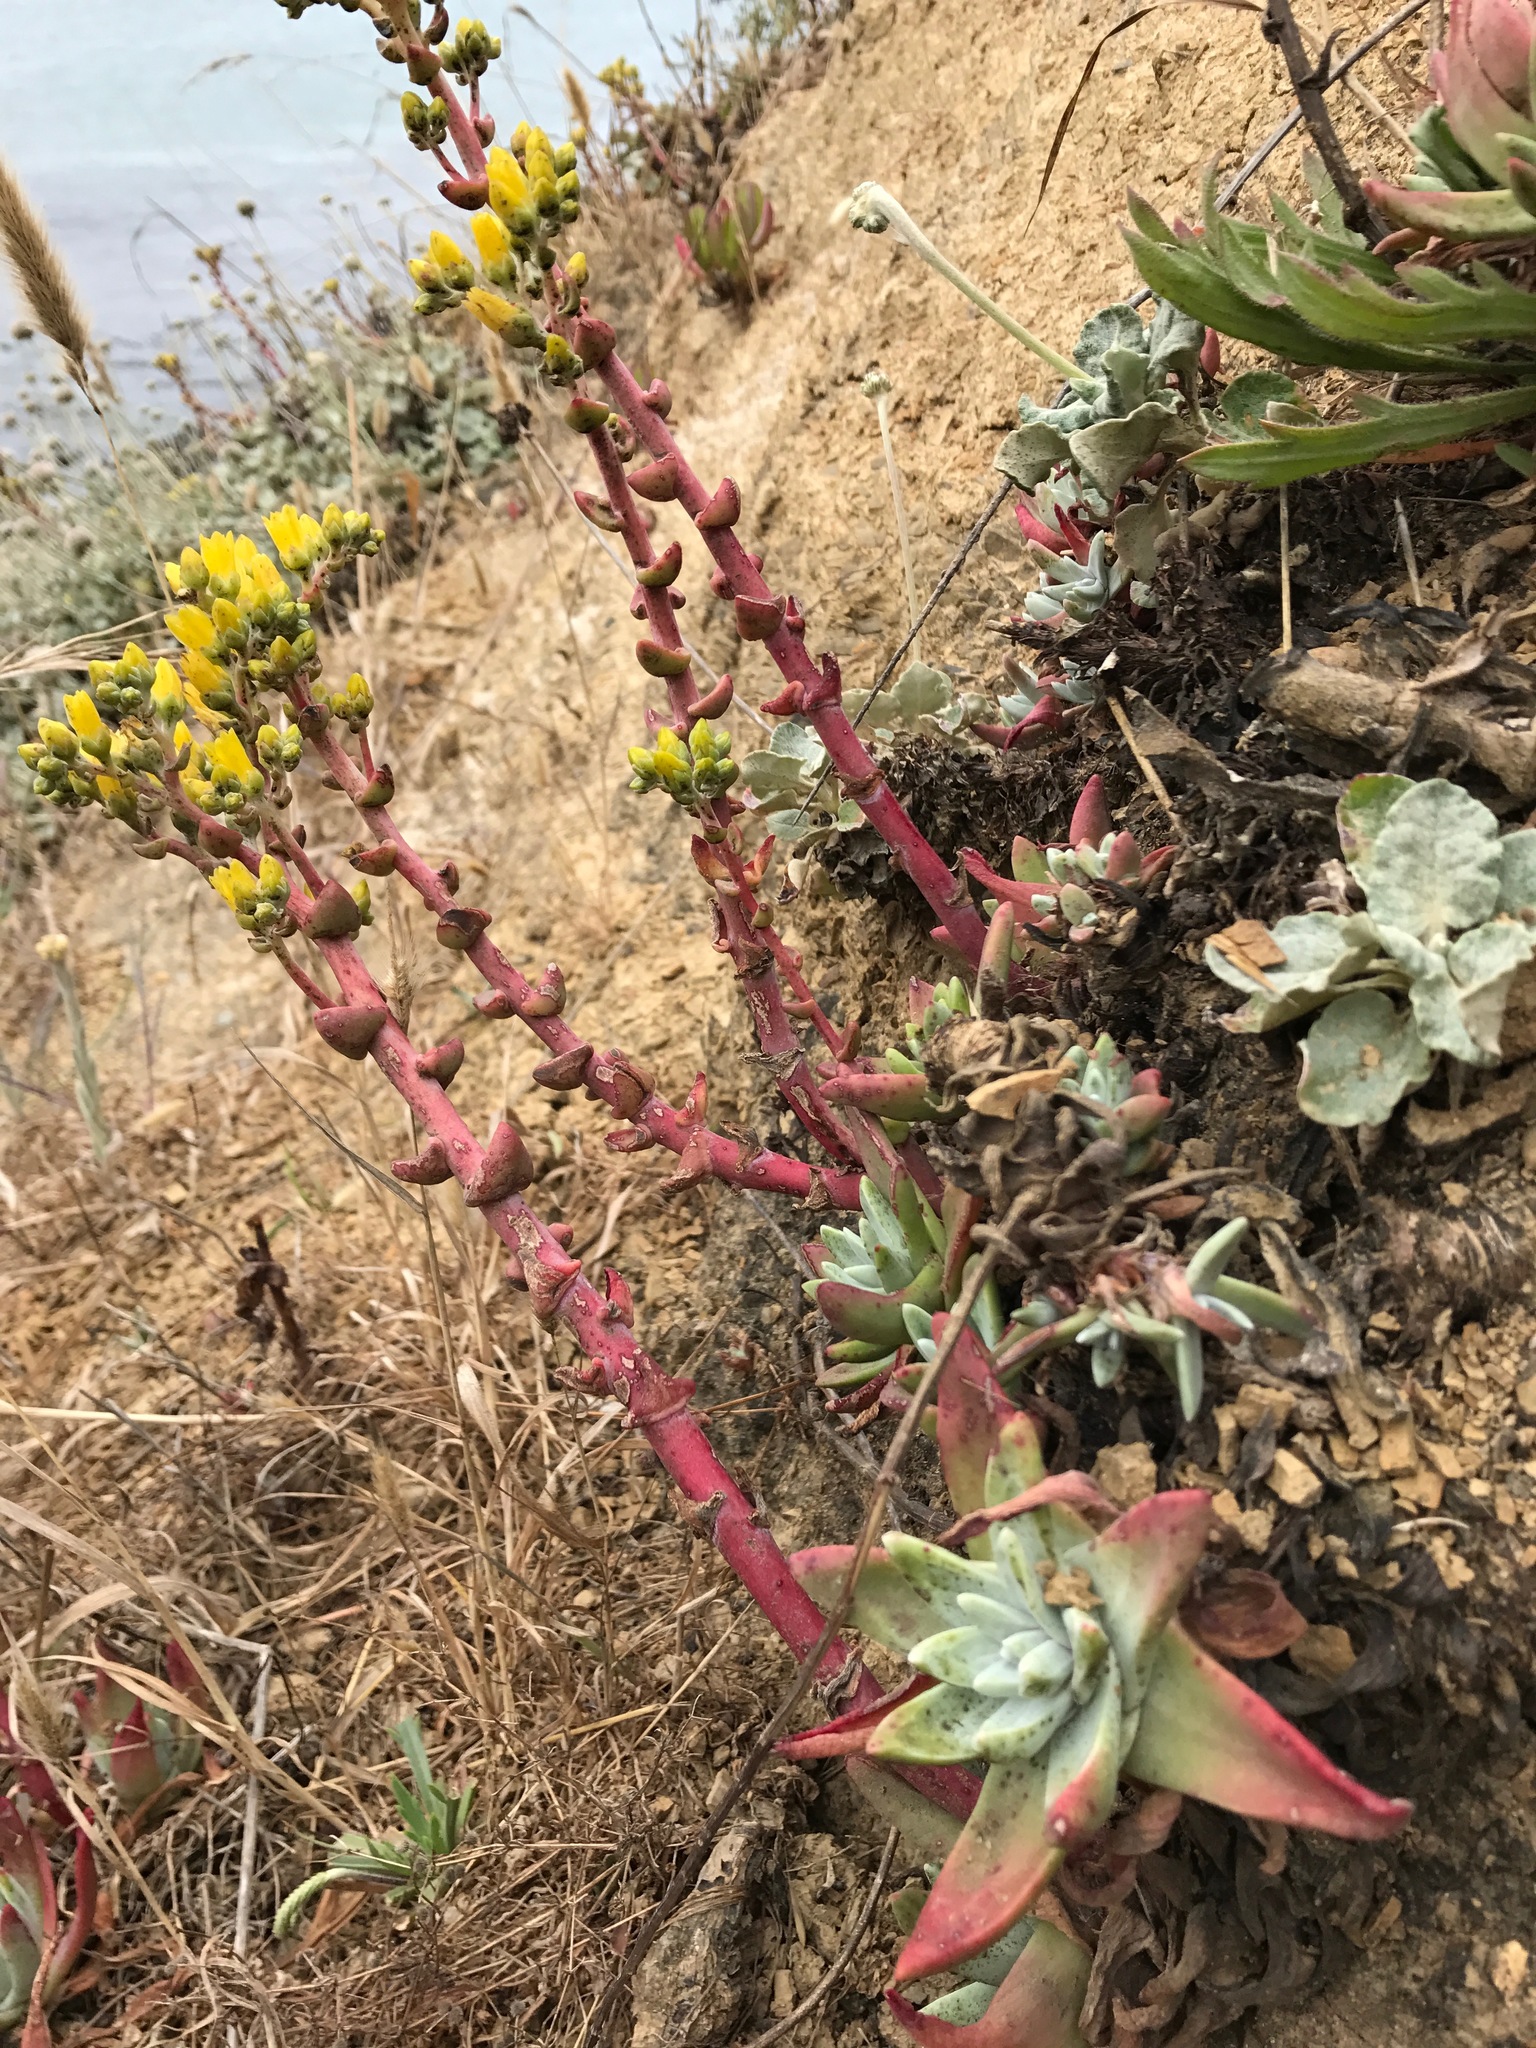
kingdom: Plantae
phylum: Tracheophyta
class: Magnoliopsida
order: Saxifragales
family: Crassulaceae
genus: Dudleya
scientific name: Dudleya caespitosa
